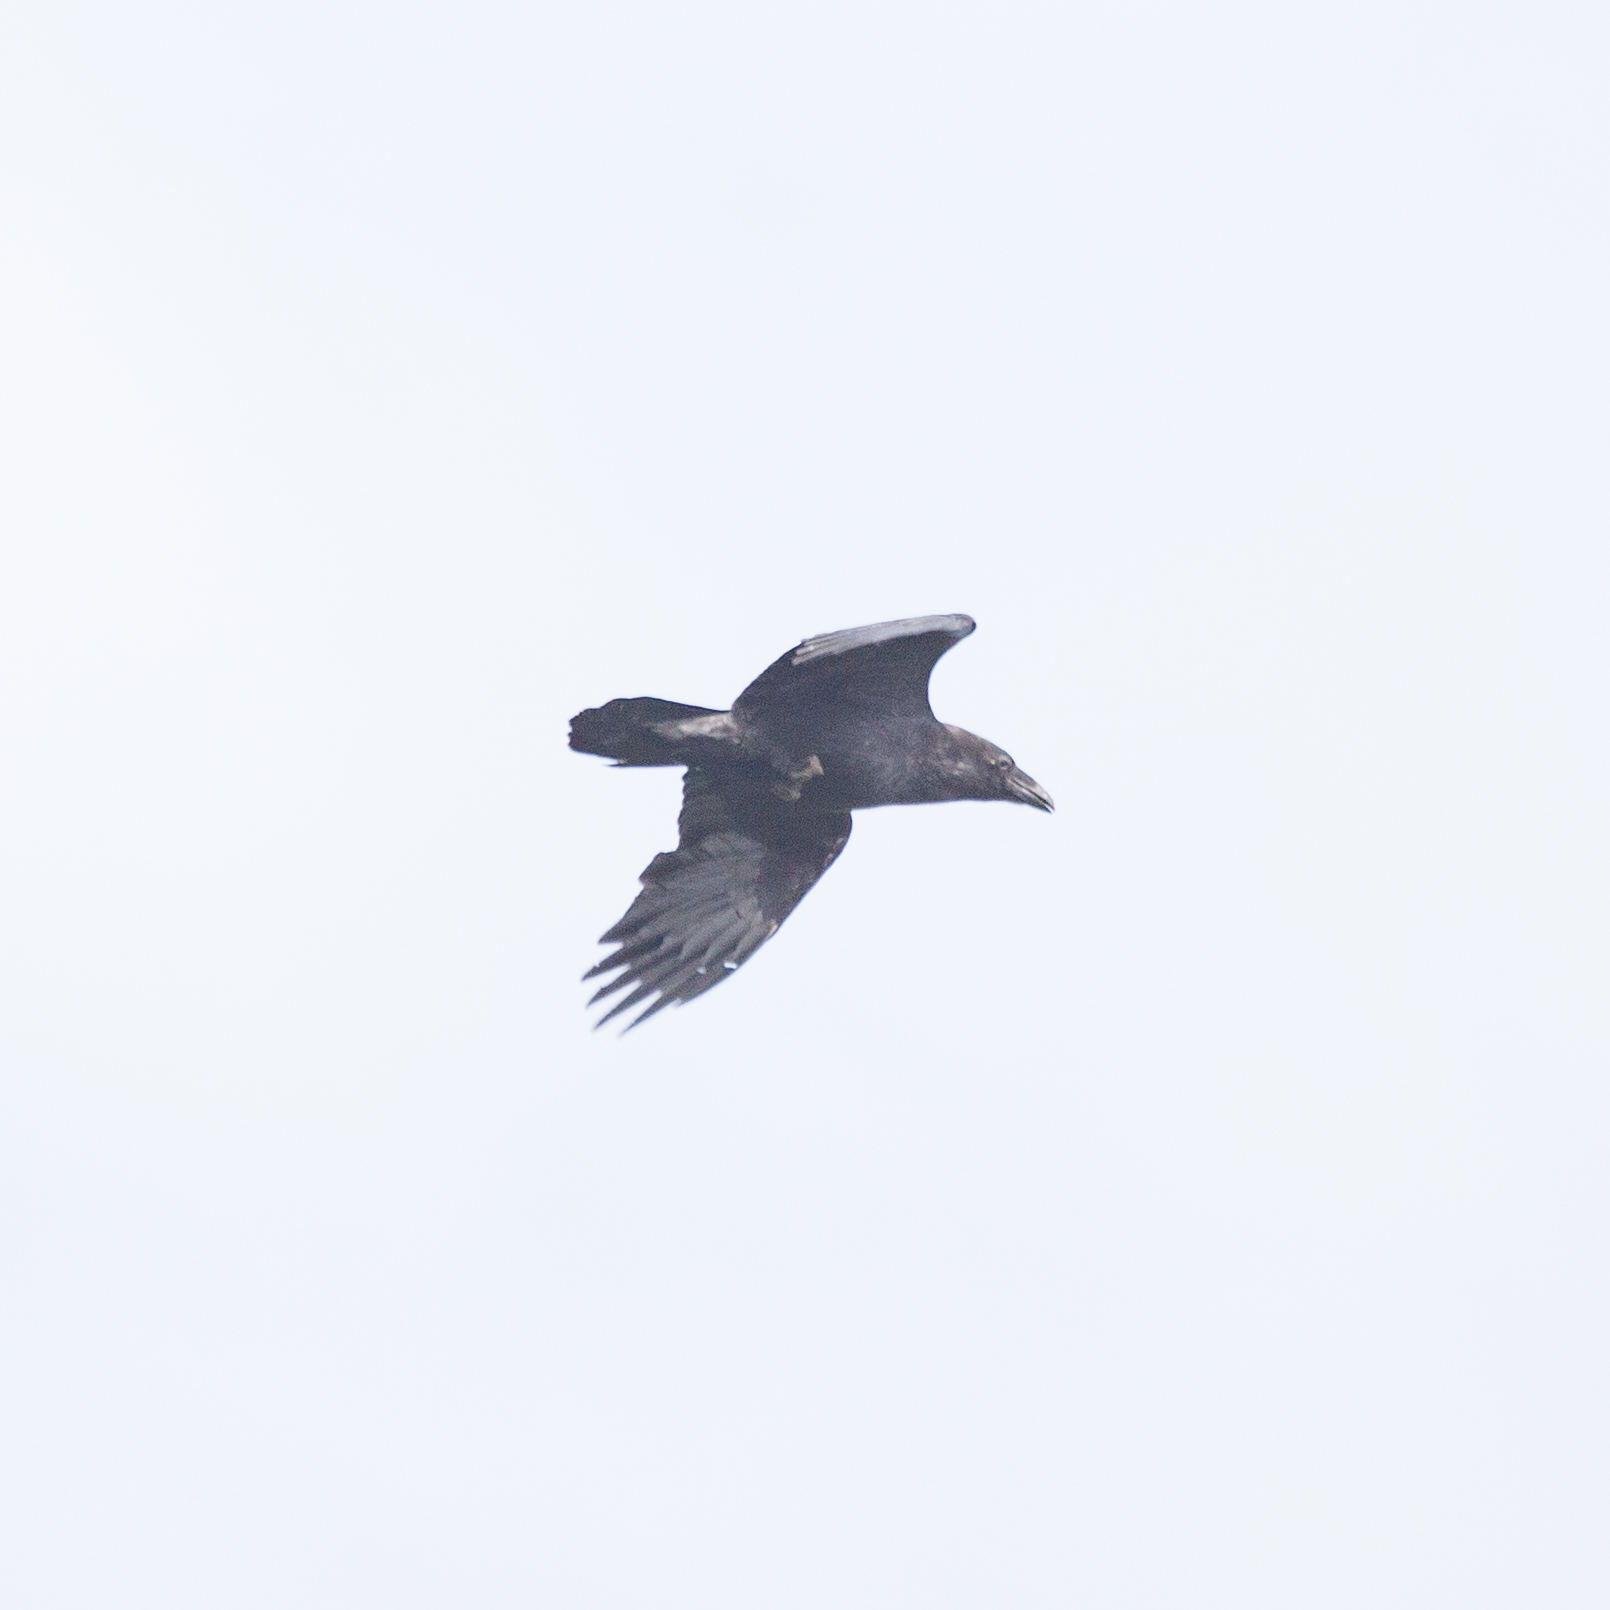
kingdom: Animalia
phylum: Chordata
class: Aves
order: Passeriformes
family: Corvidae
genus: Corvus
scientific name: Corvus corax
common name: Common raven
